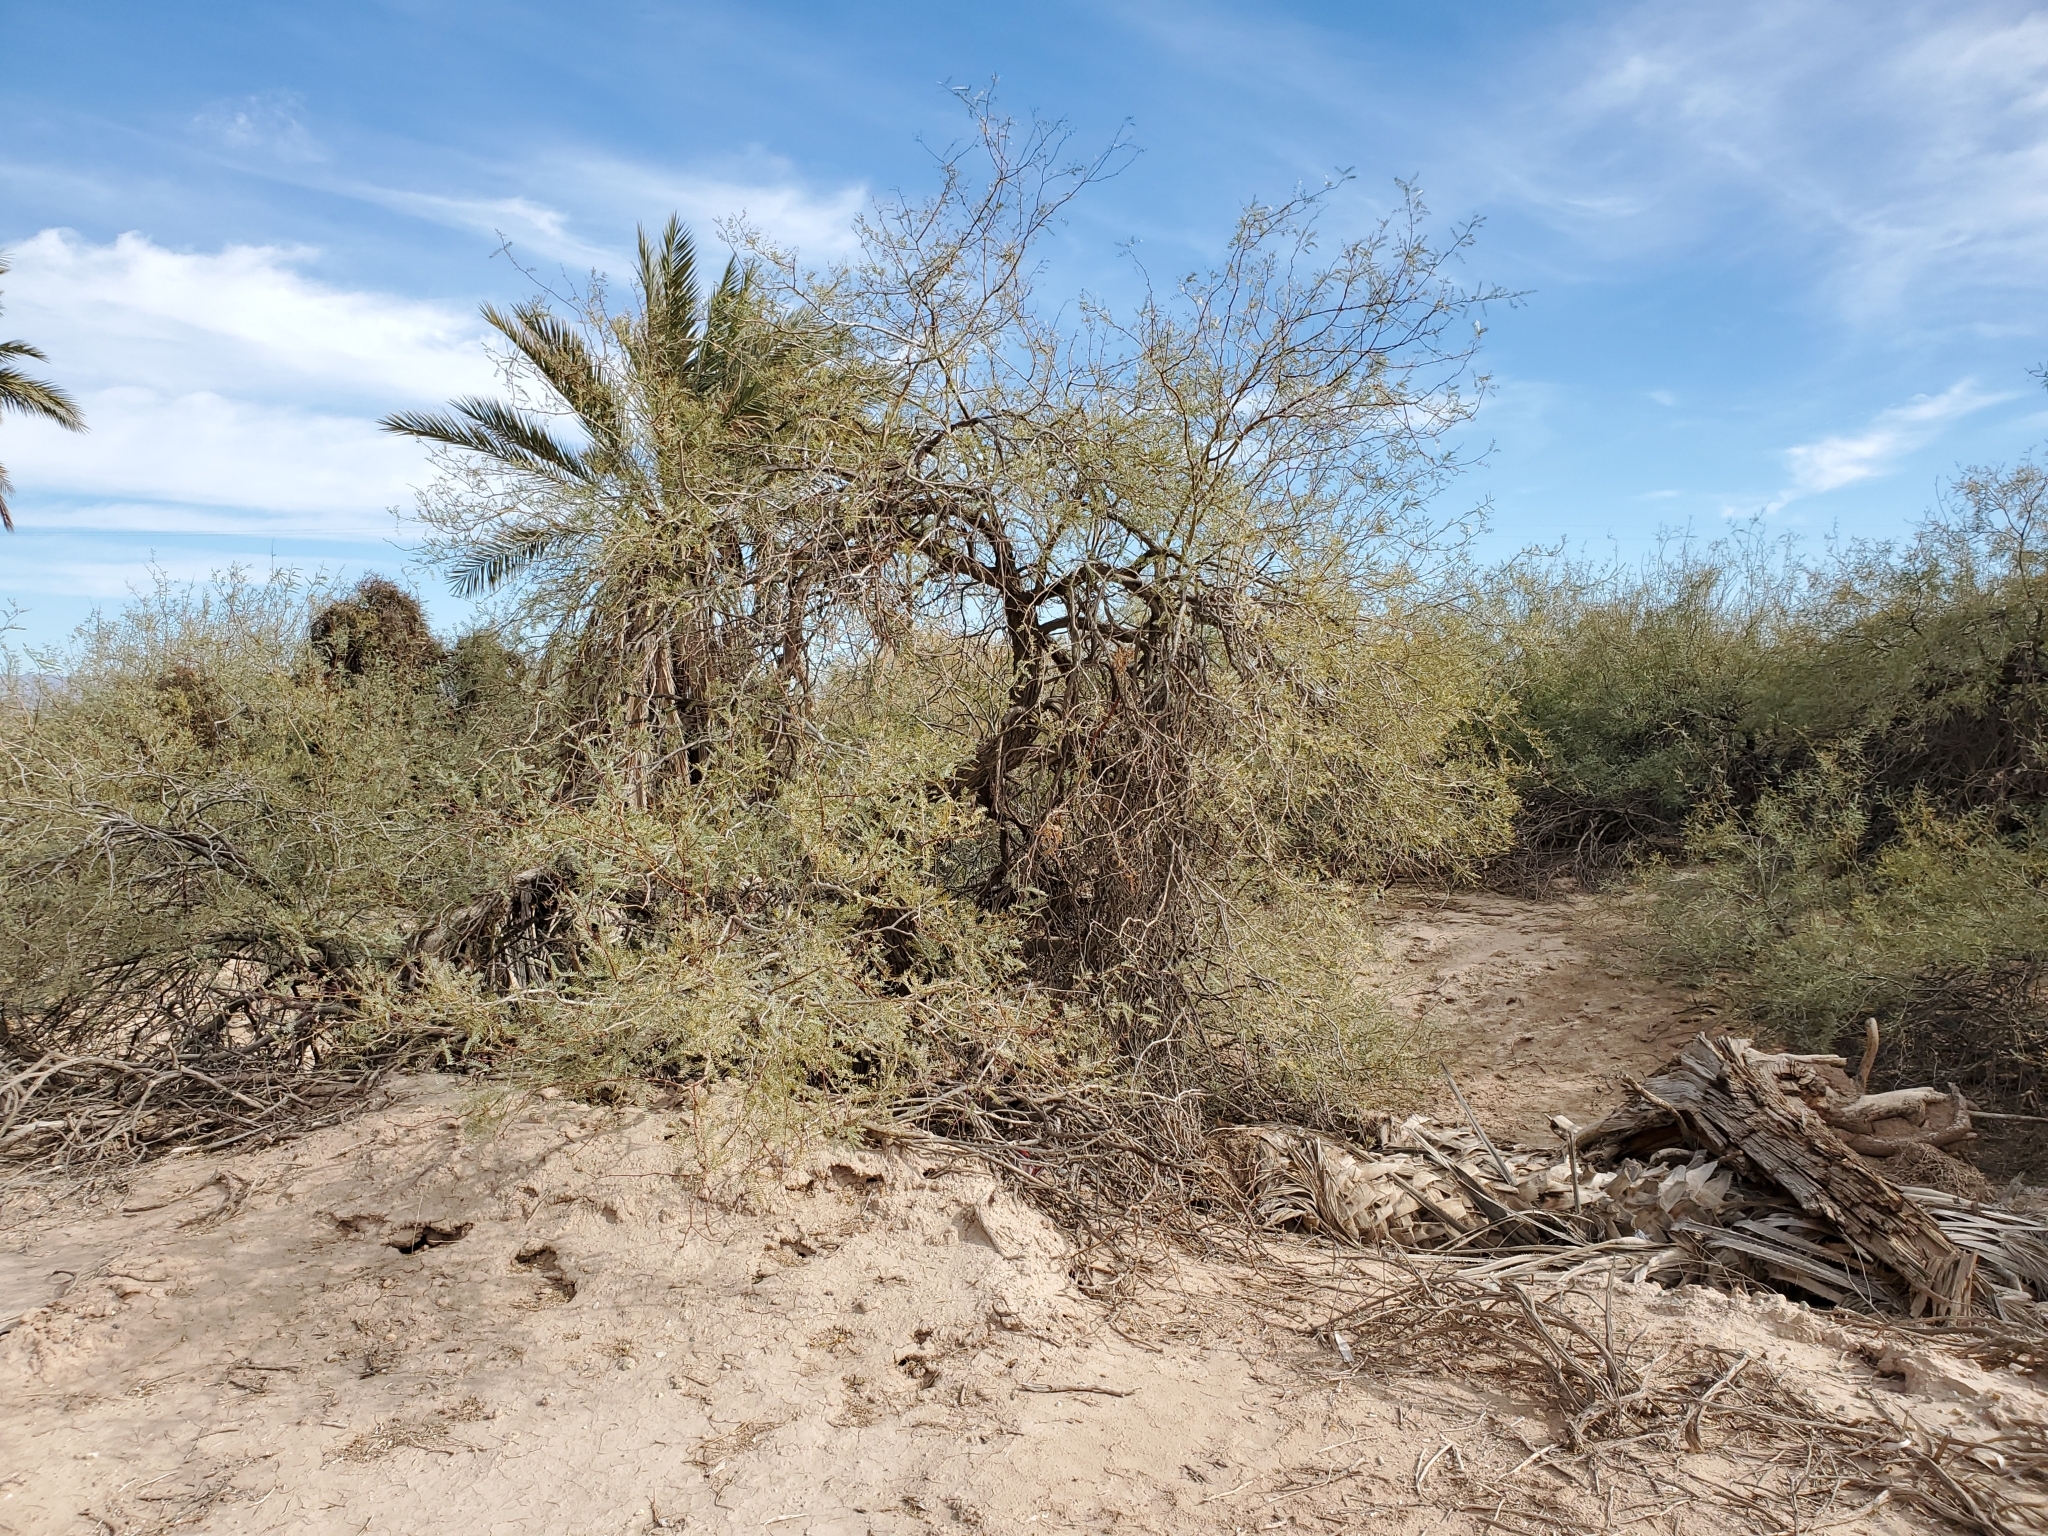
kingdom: Plantae
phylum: Tracheophyta
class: Magnoliopsida
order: Fabales
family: Fabaceae
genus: Prosopis
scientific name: Prosopis pubescens
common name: Screw-bean
